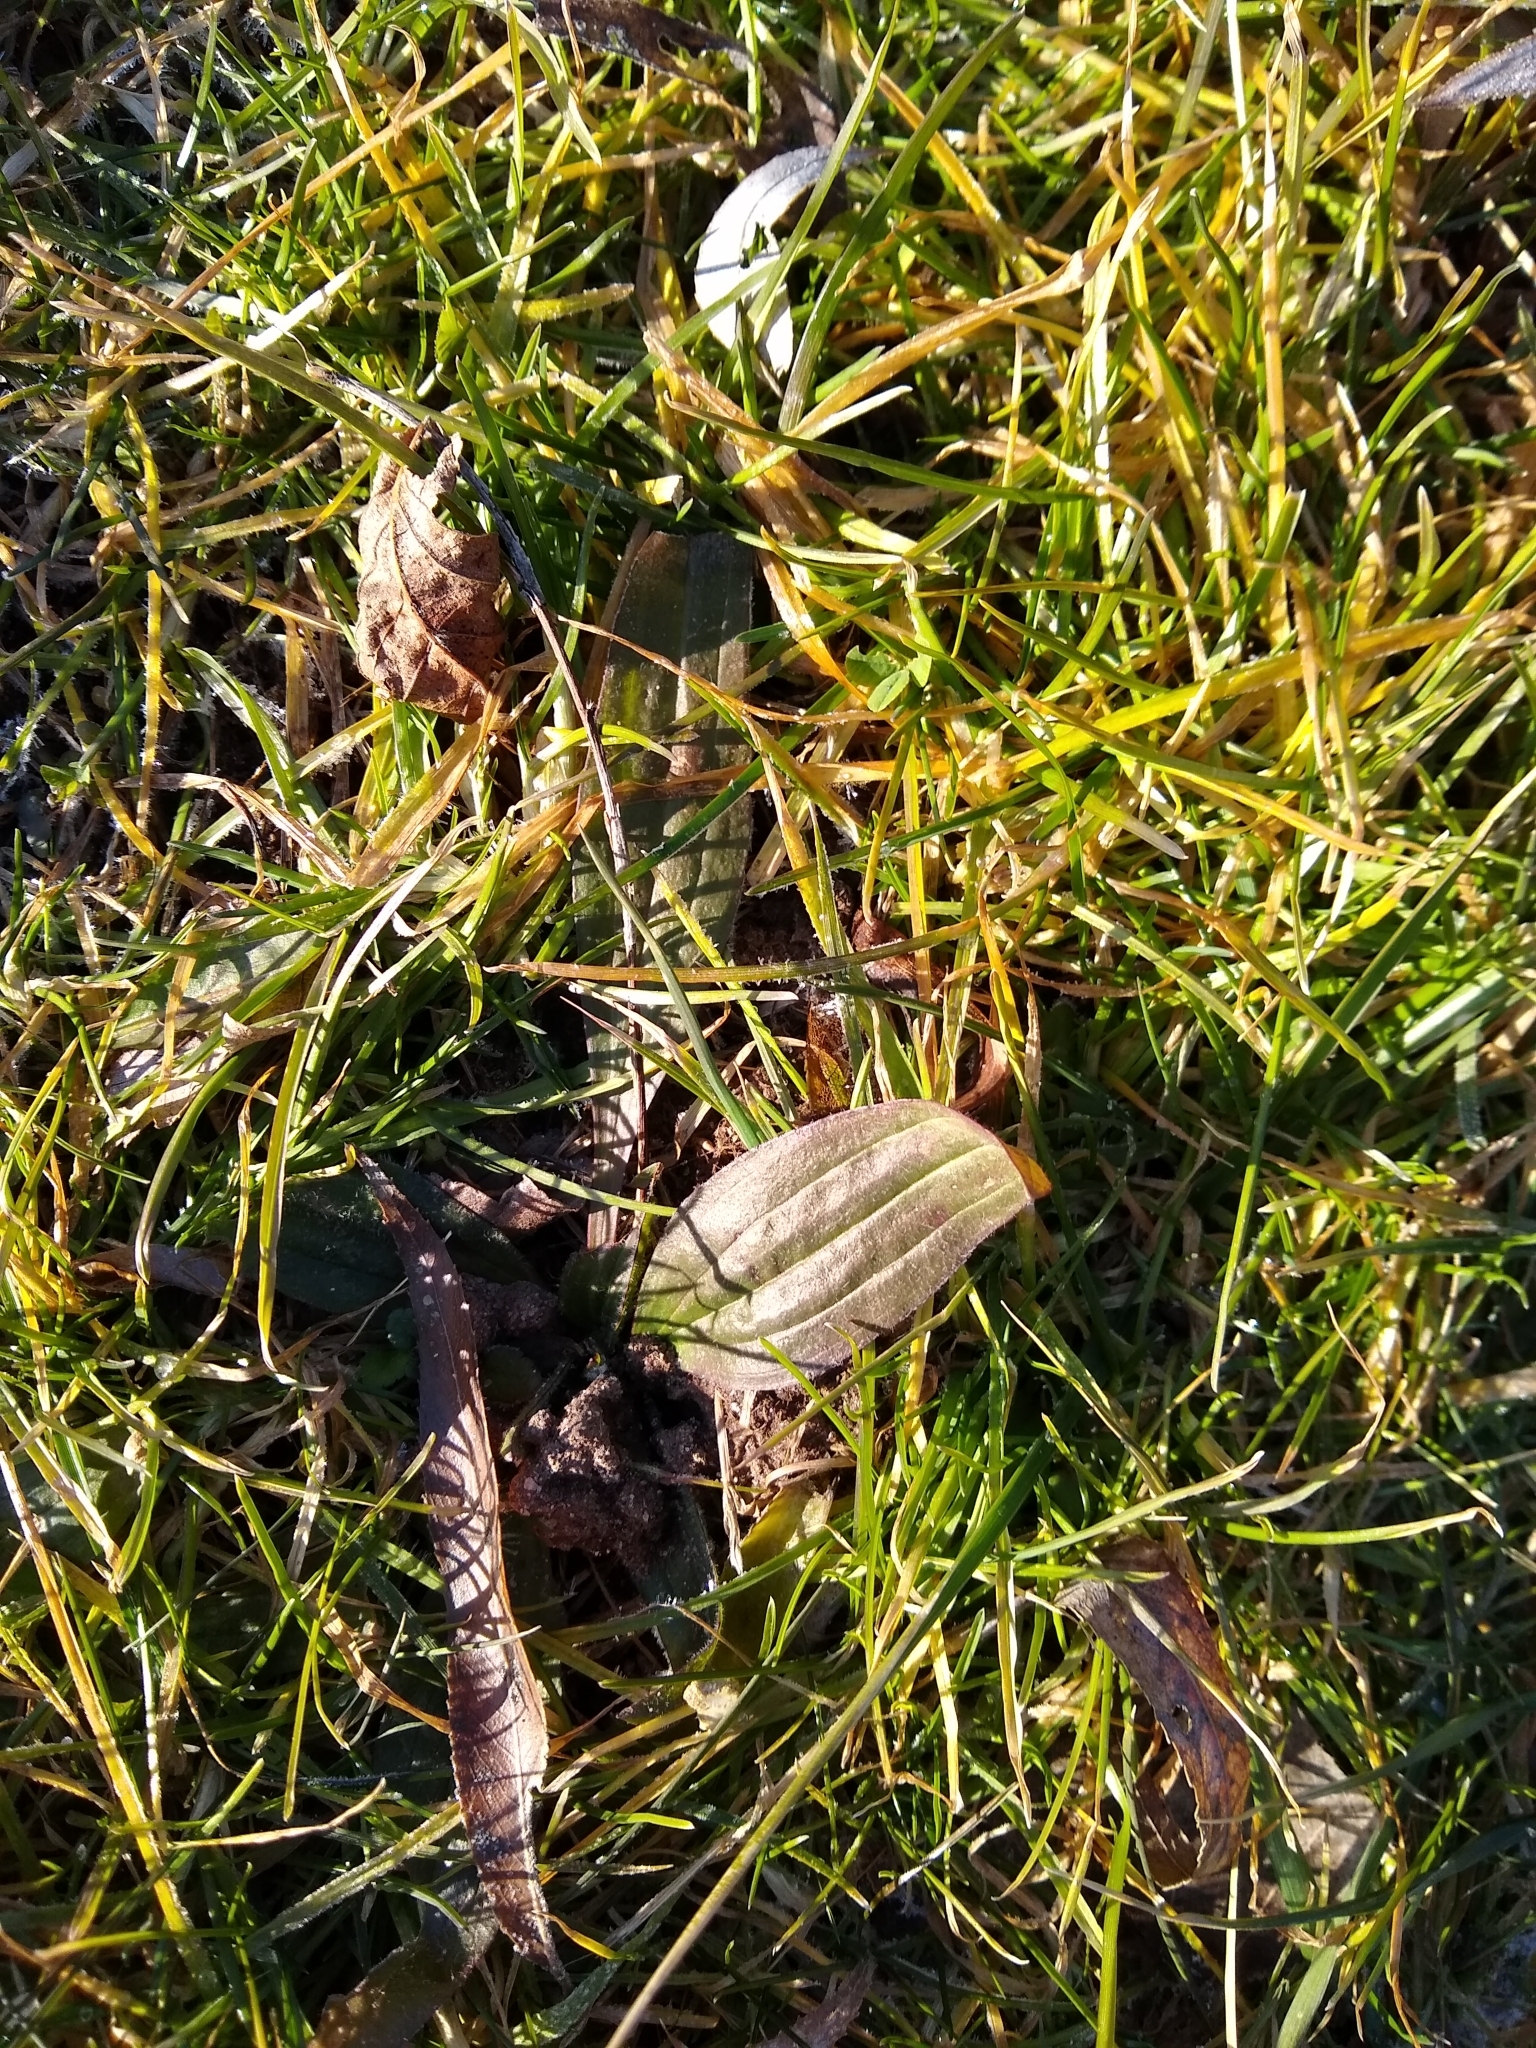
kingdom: Plantae
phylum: Tracheophyta
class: Magnoliopsida
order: Lamiales
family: Plantaginaceae
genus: Plantago
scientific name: Plantago lanceolata
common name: Ribwort plantain
